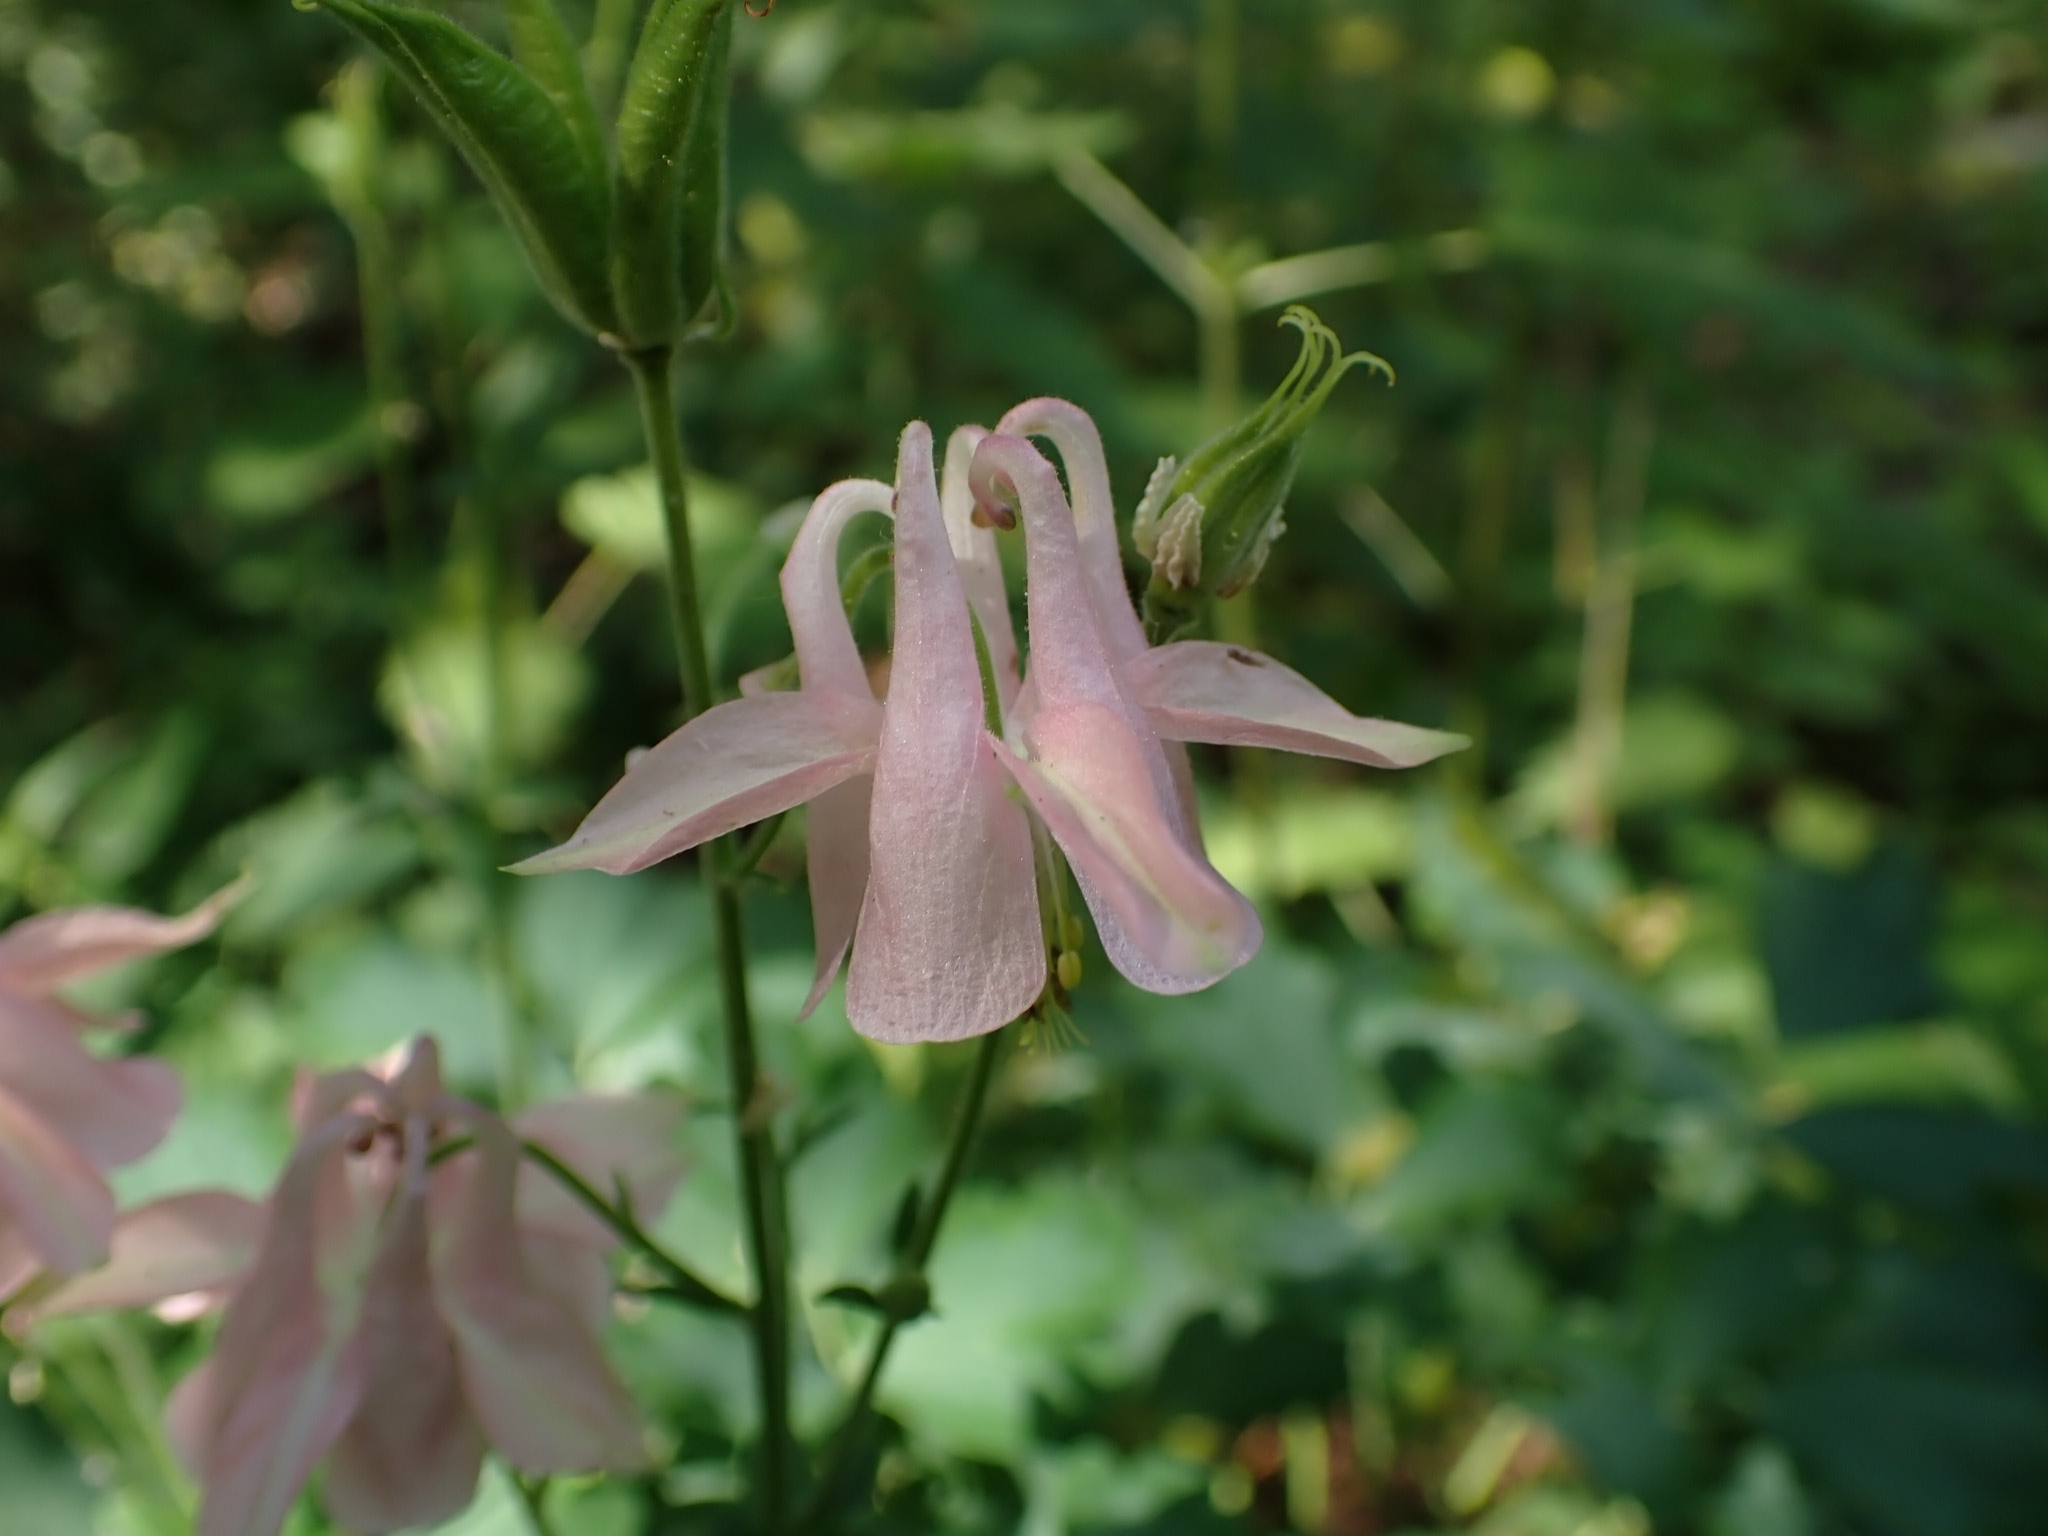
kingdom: Plantae
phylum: Tracheophyta
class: Magnoliopsida
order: Ranunculales
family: Ranunculaceae
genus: Aquilegia
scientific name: Aquilegia vulgaris
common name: Columbine
